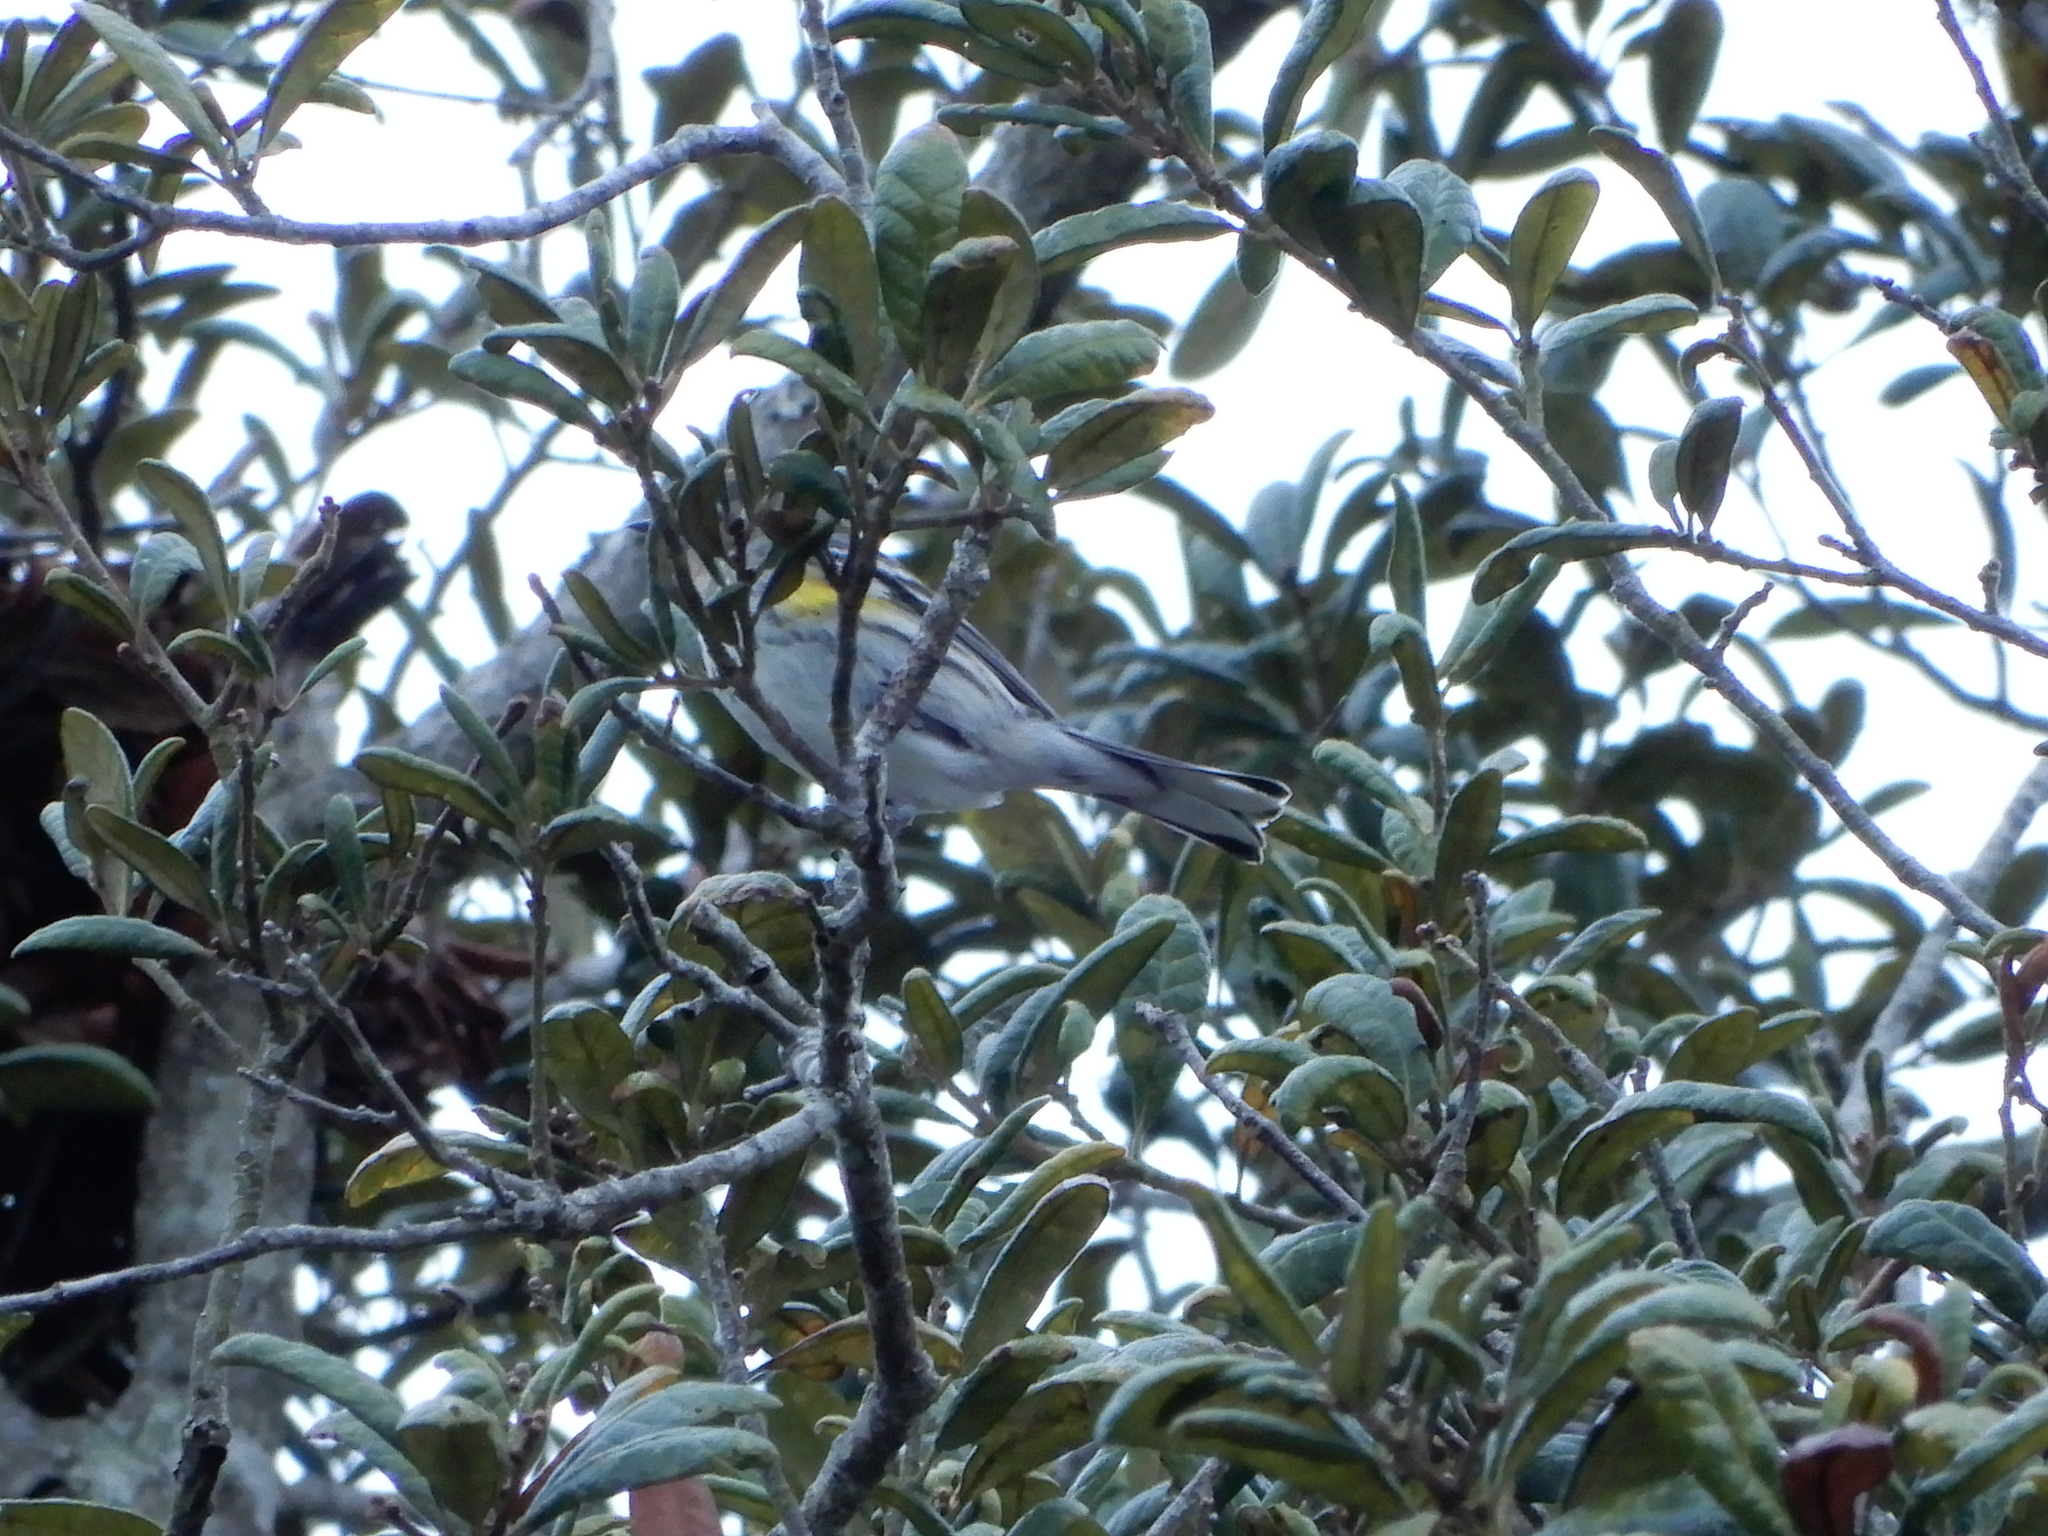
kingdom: Animalia
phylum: Chordata
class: Aves
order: Passeriformes
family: Parulidae
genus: Setophaga
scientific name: Setophaga coronata
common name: Myrtle warbler
